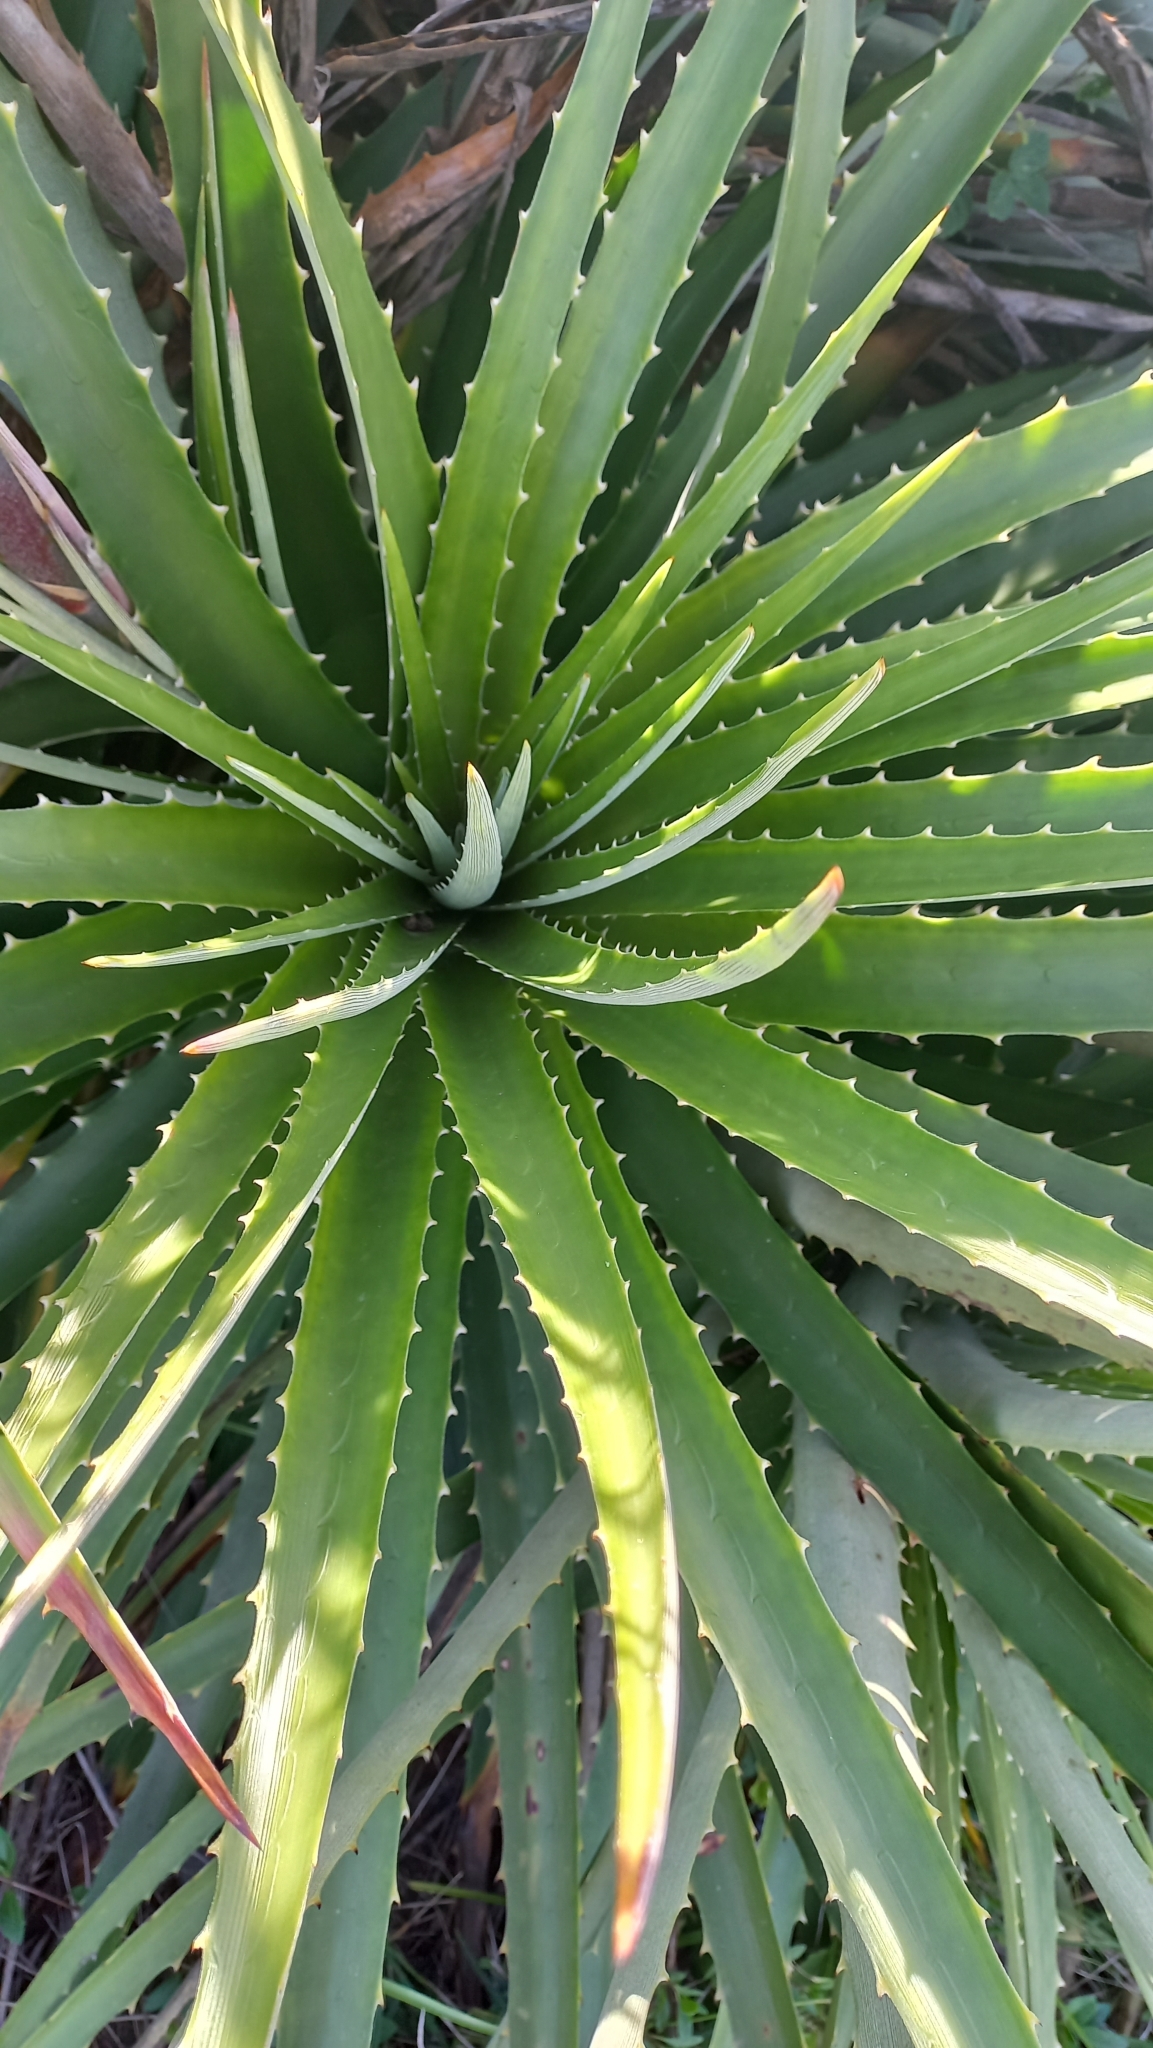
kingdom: Plantae
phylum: Tracheophyta
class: Liliopsida
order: Poales
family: Bromeliaceae
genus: Dyckia
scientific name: Dyckia encholirioides
